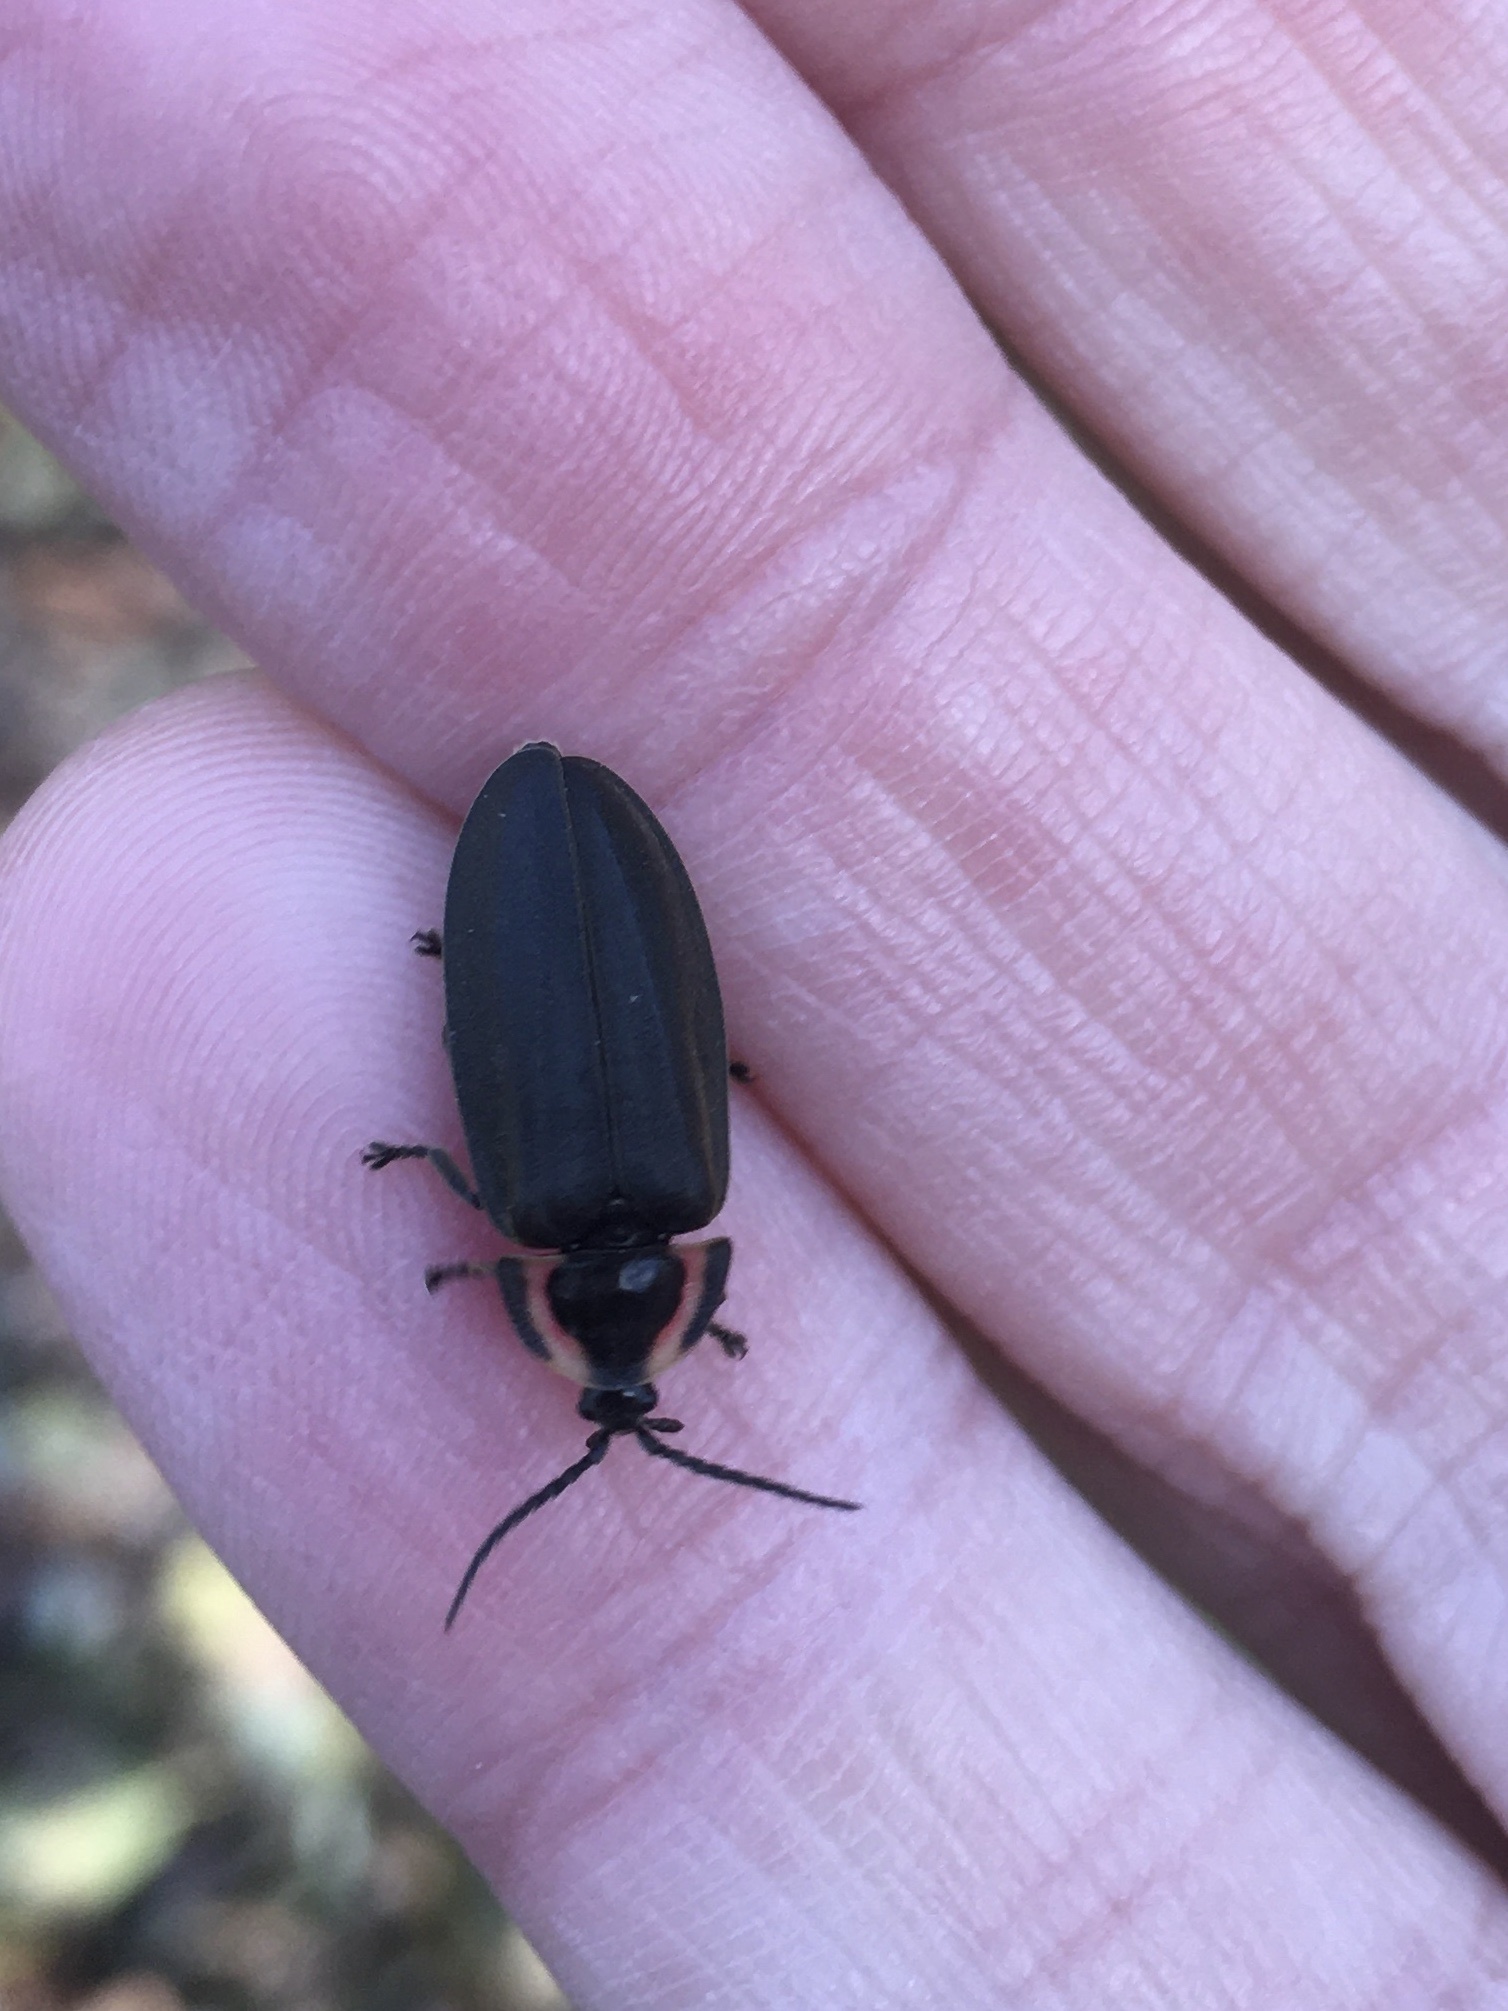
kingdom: Animalia
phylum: Arthropoda
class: Insecta
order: Coleoptera
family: Lampyridae
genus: Photinus
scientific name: Photinus corrusca
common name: Winter firefly
